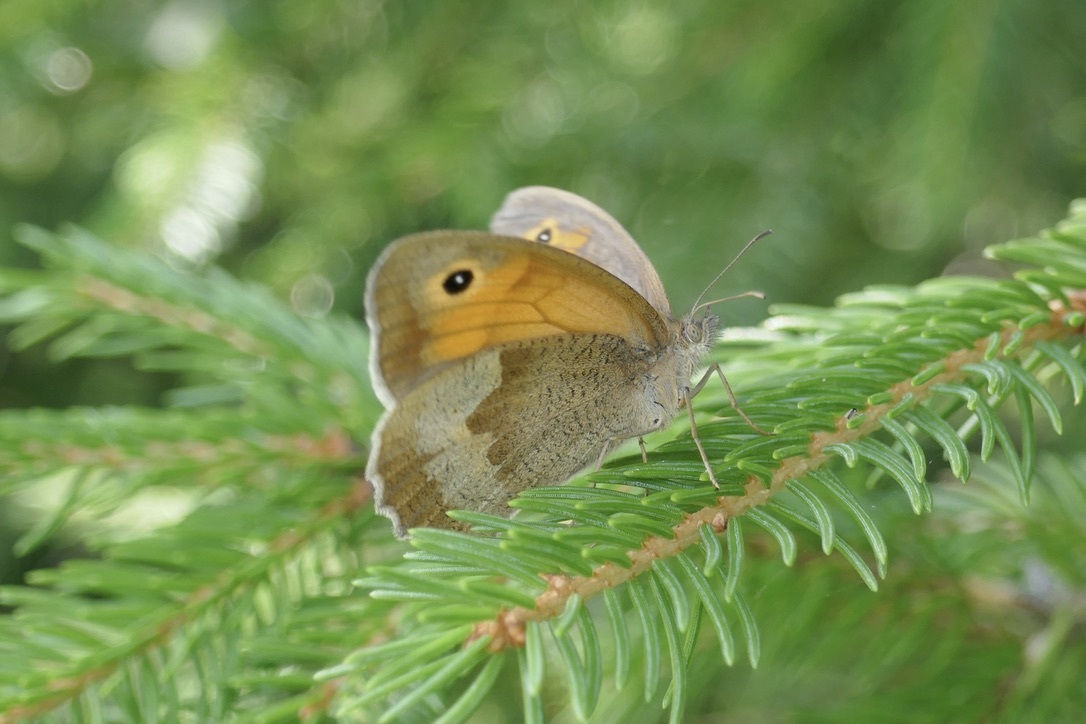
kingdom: Animalia
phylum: Arthropoda
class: Insecta
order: Lepidoptera
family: Nymphalidae
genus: Maniola
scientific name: Maniola jurtina
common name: Meadow brown
